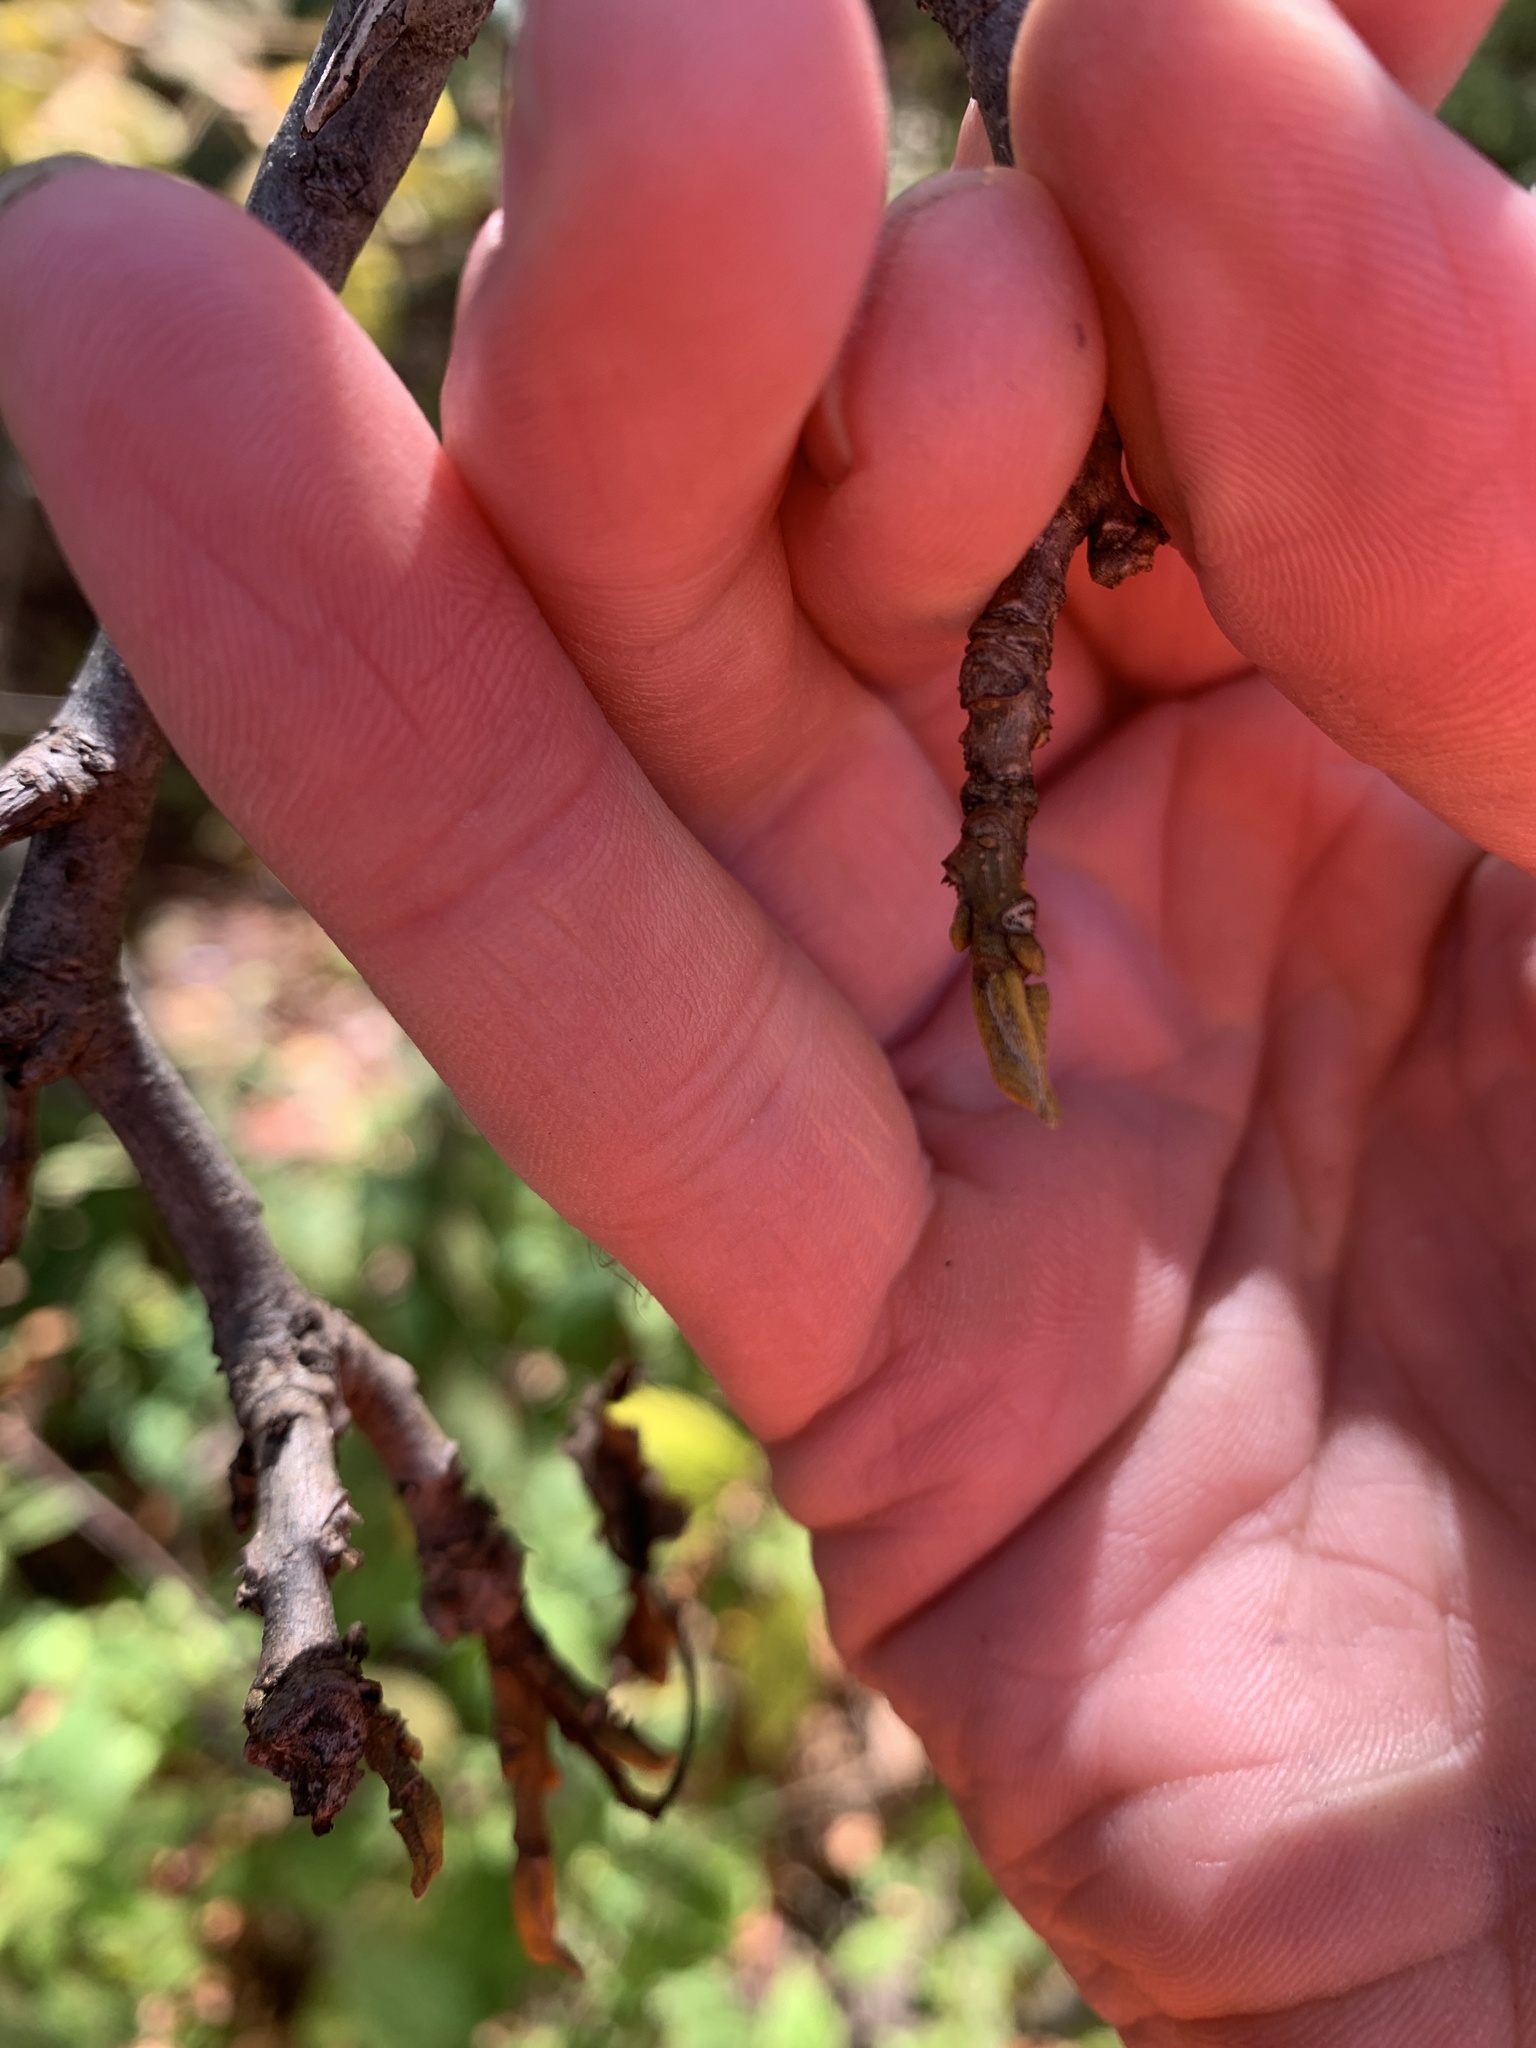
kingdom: Plantae
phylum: Tracheophyta
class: Magnoliopsida
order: Fagales
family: Juglandaceae
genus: Carya
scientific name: Carya cordiformis
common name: Bitternut hickory
